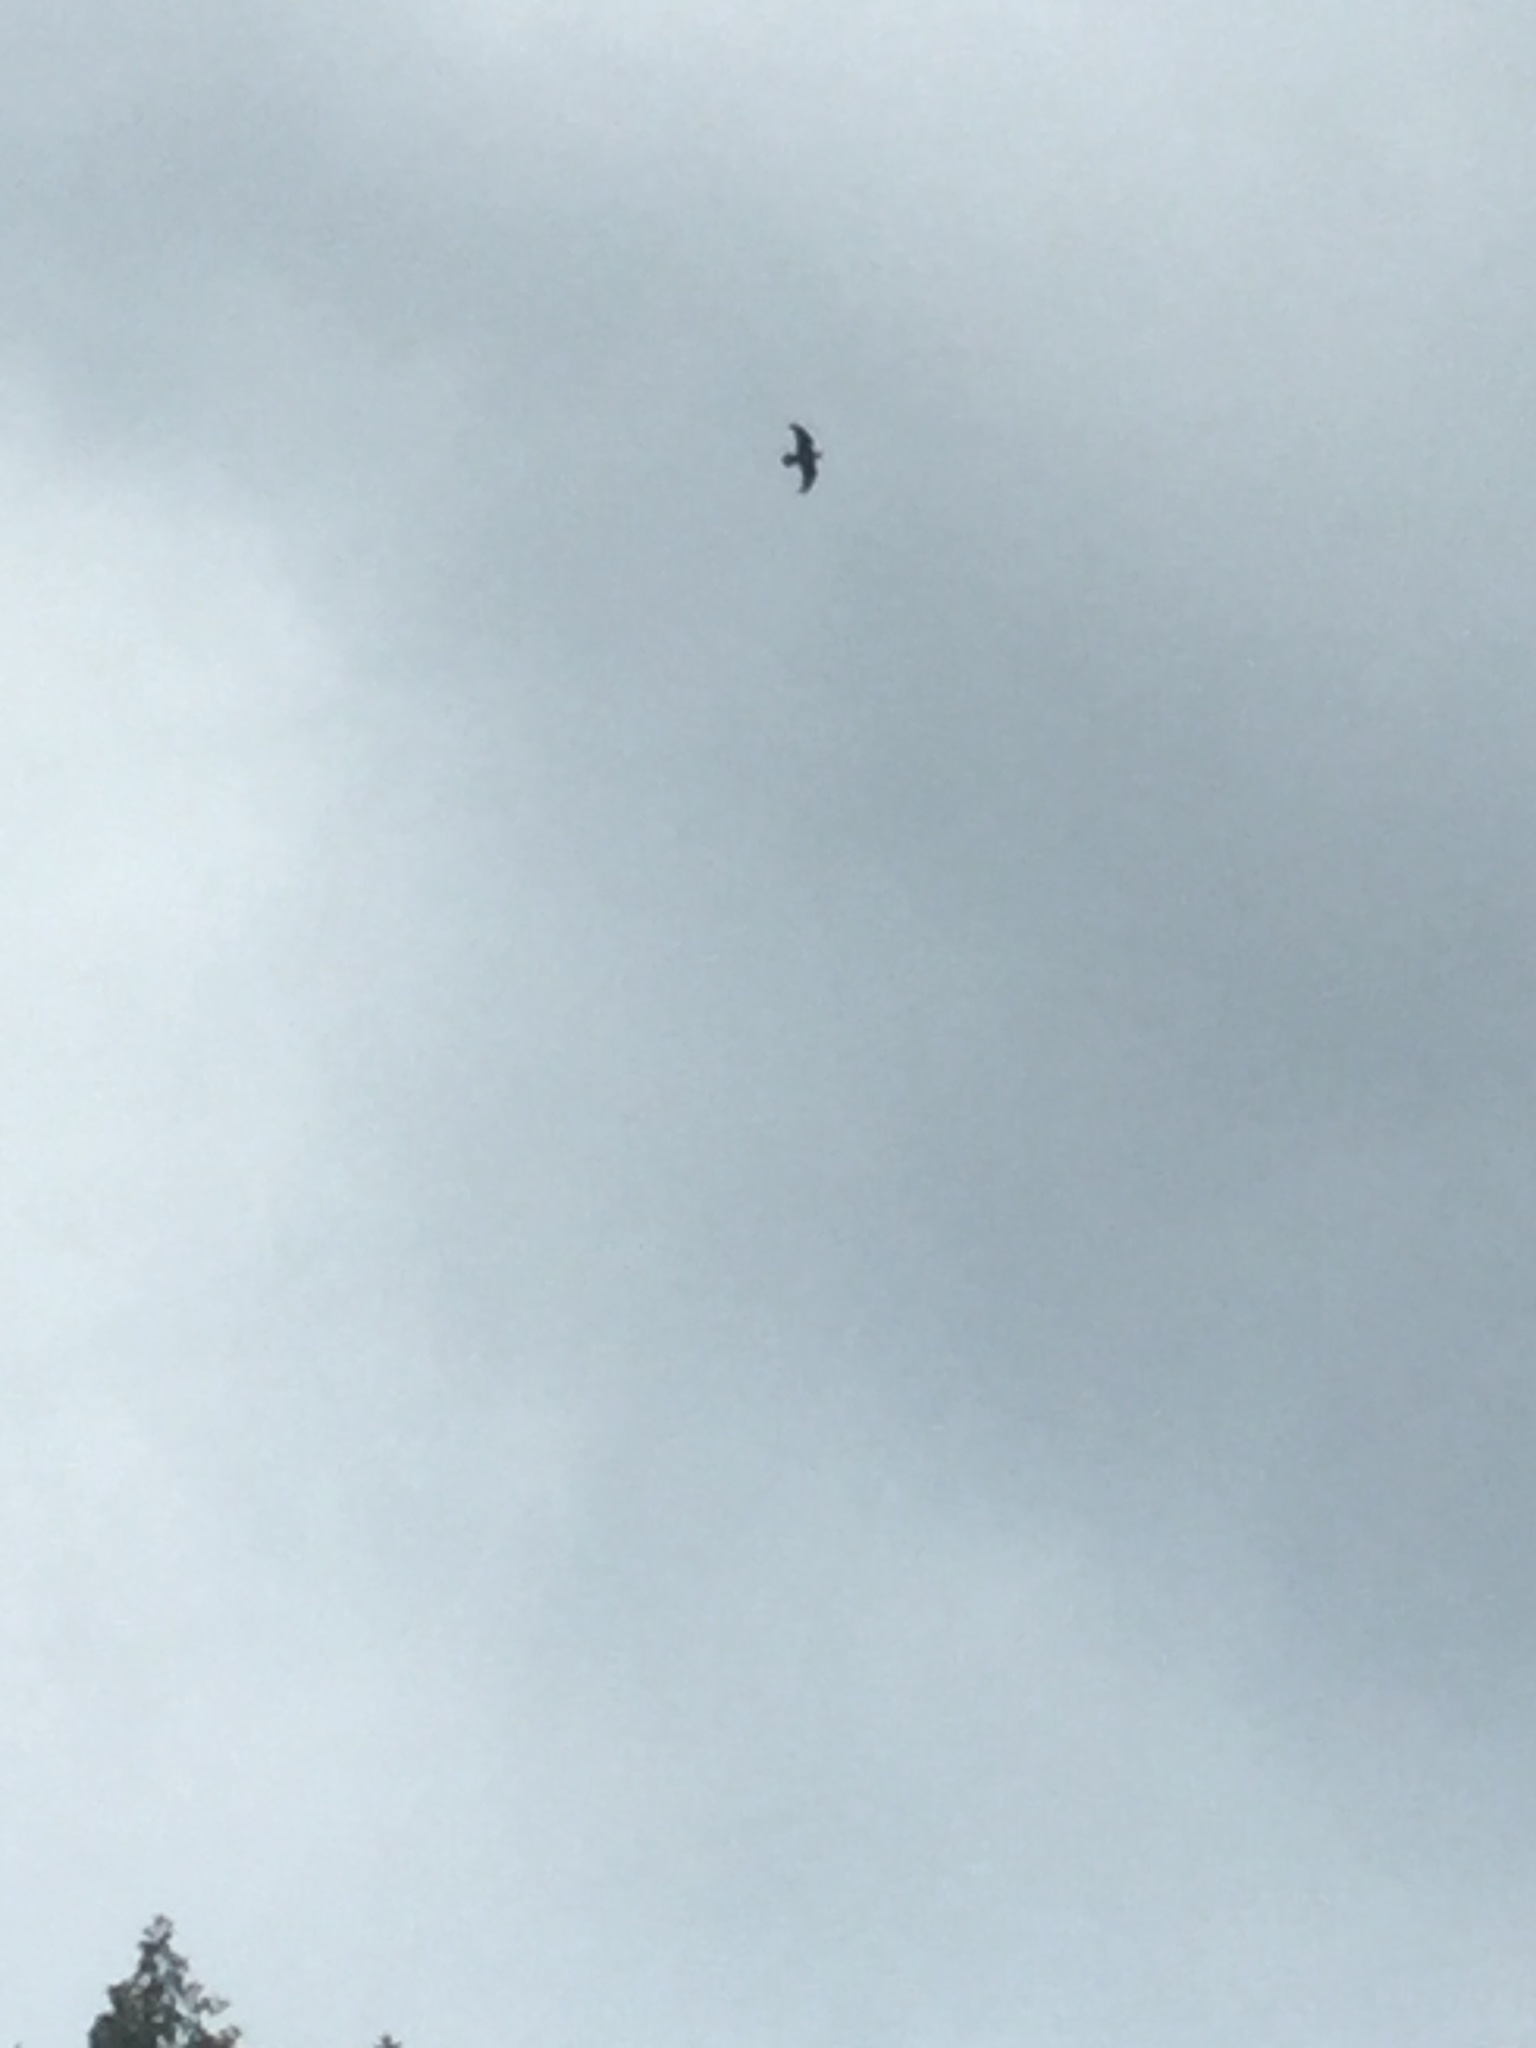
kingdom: Animalia
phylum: Chordata
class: Aves
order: Passeriformes
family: Corvidae
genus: Corvus
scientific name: Corvus corax
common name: Common raven
